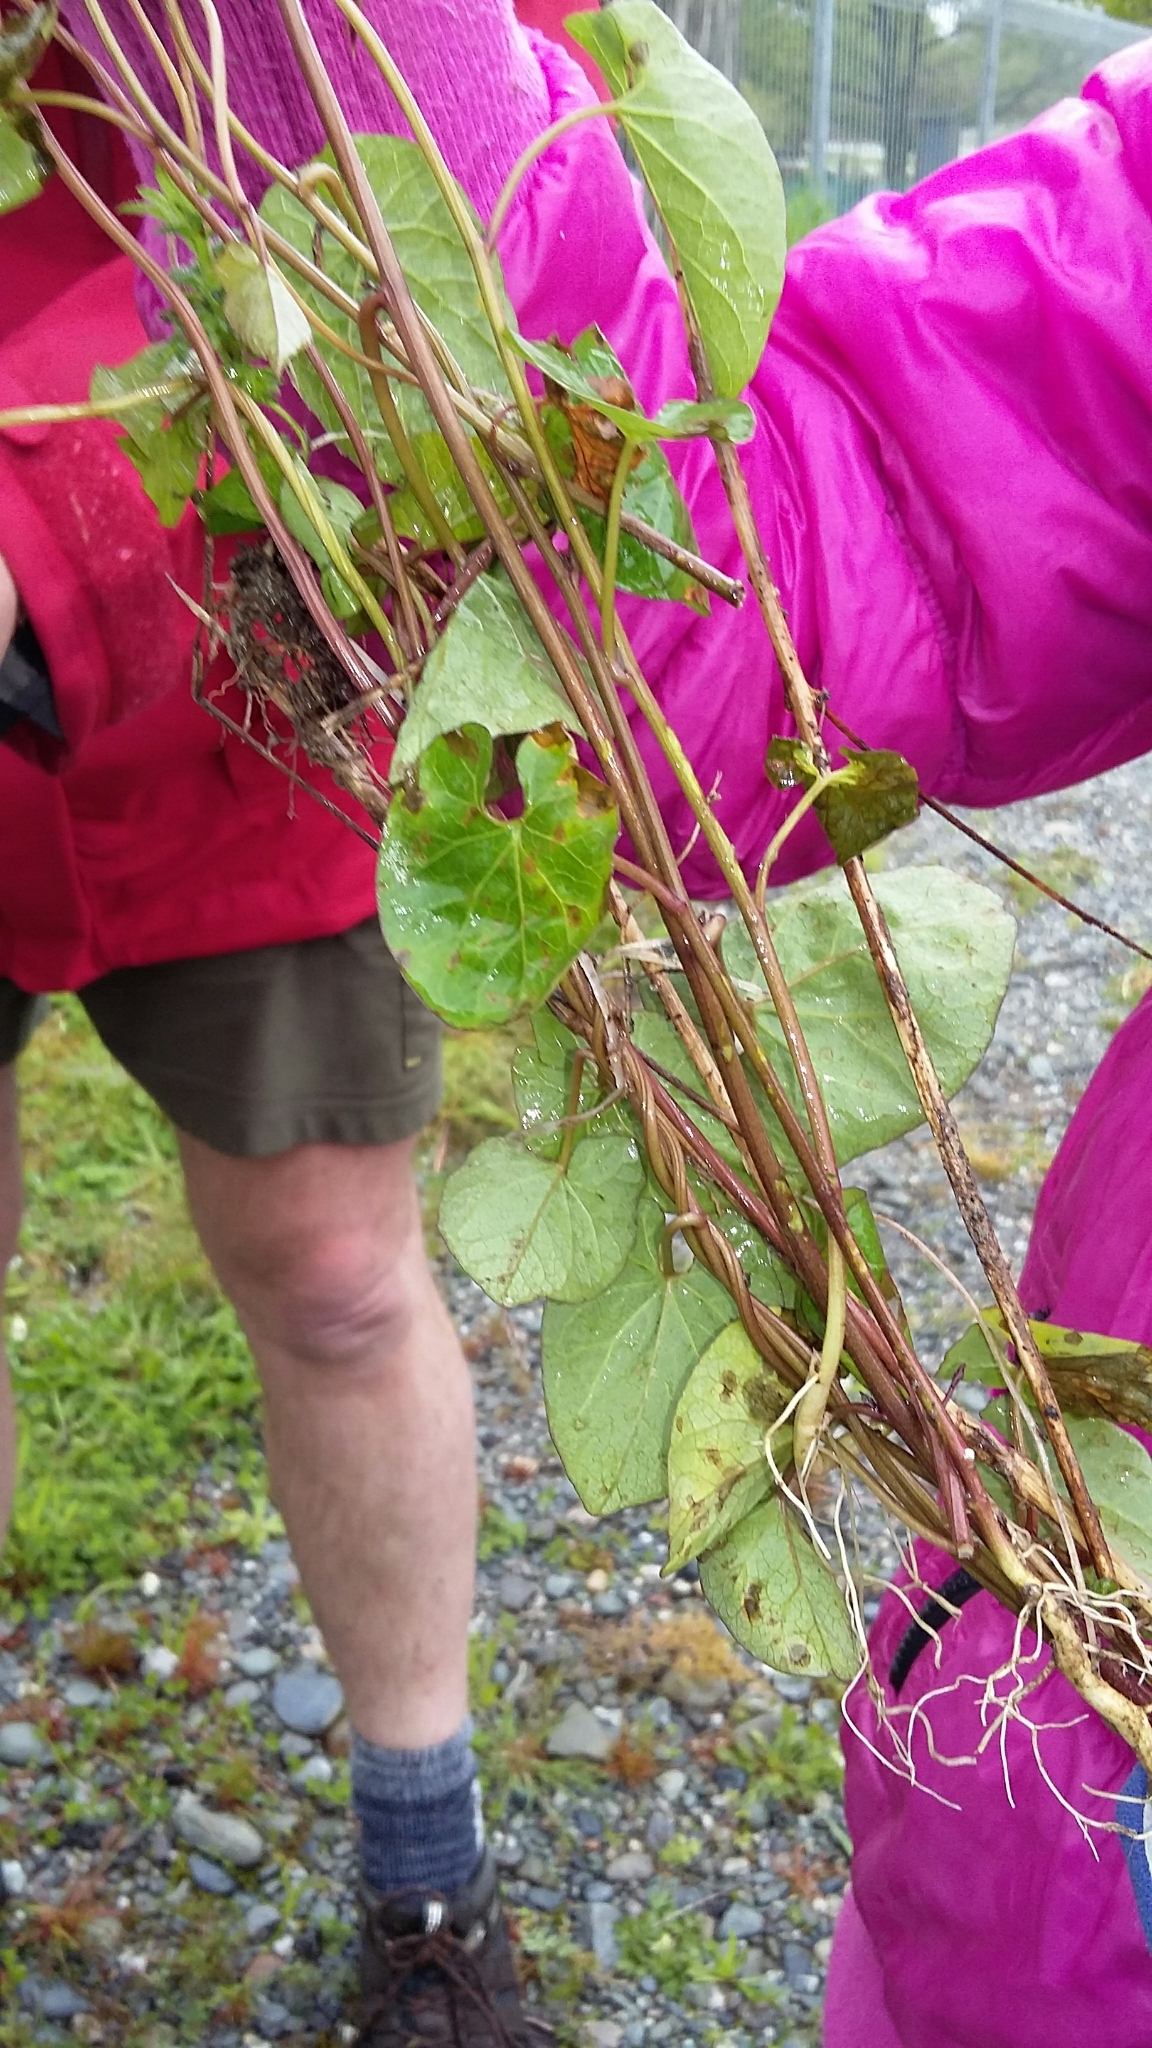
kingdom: Plantae
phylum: Tracheophyta
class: Magnoliopsida
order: Solanales
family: Convolvulaceae
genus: Calystegia
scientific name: Calystegia silvatica
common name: Large bindweed
